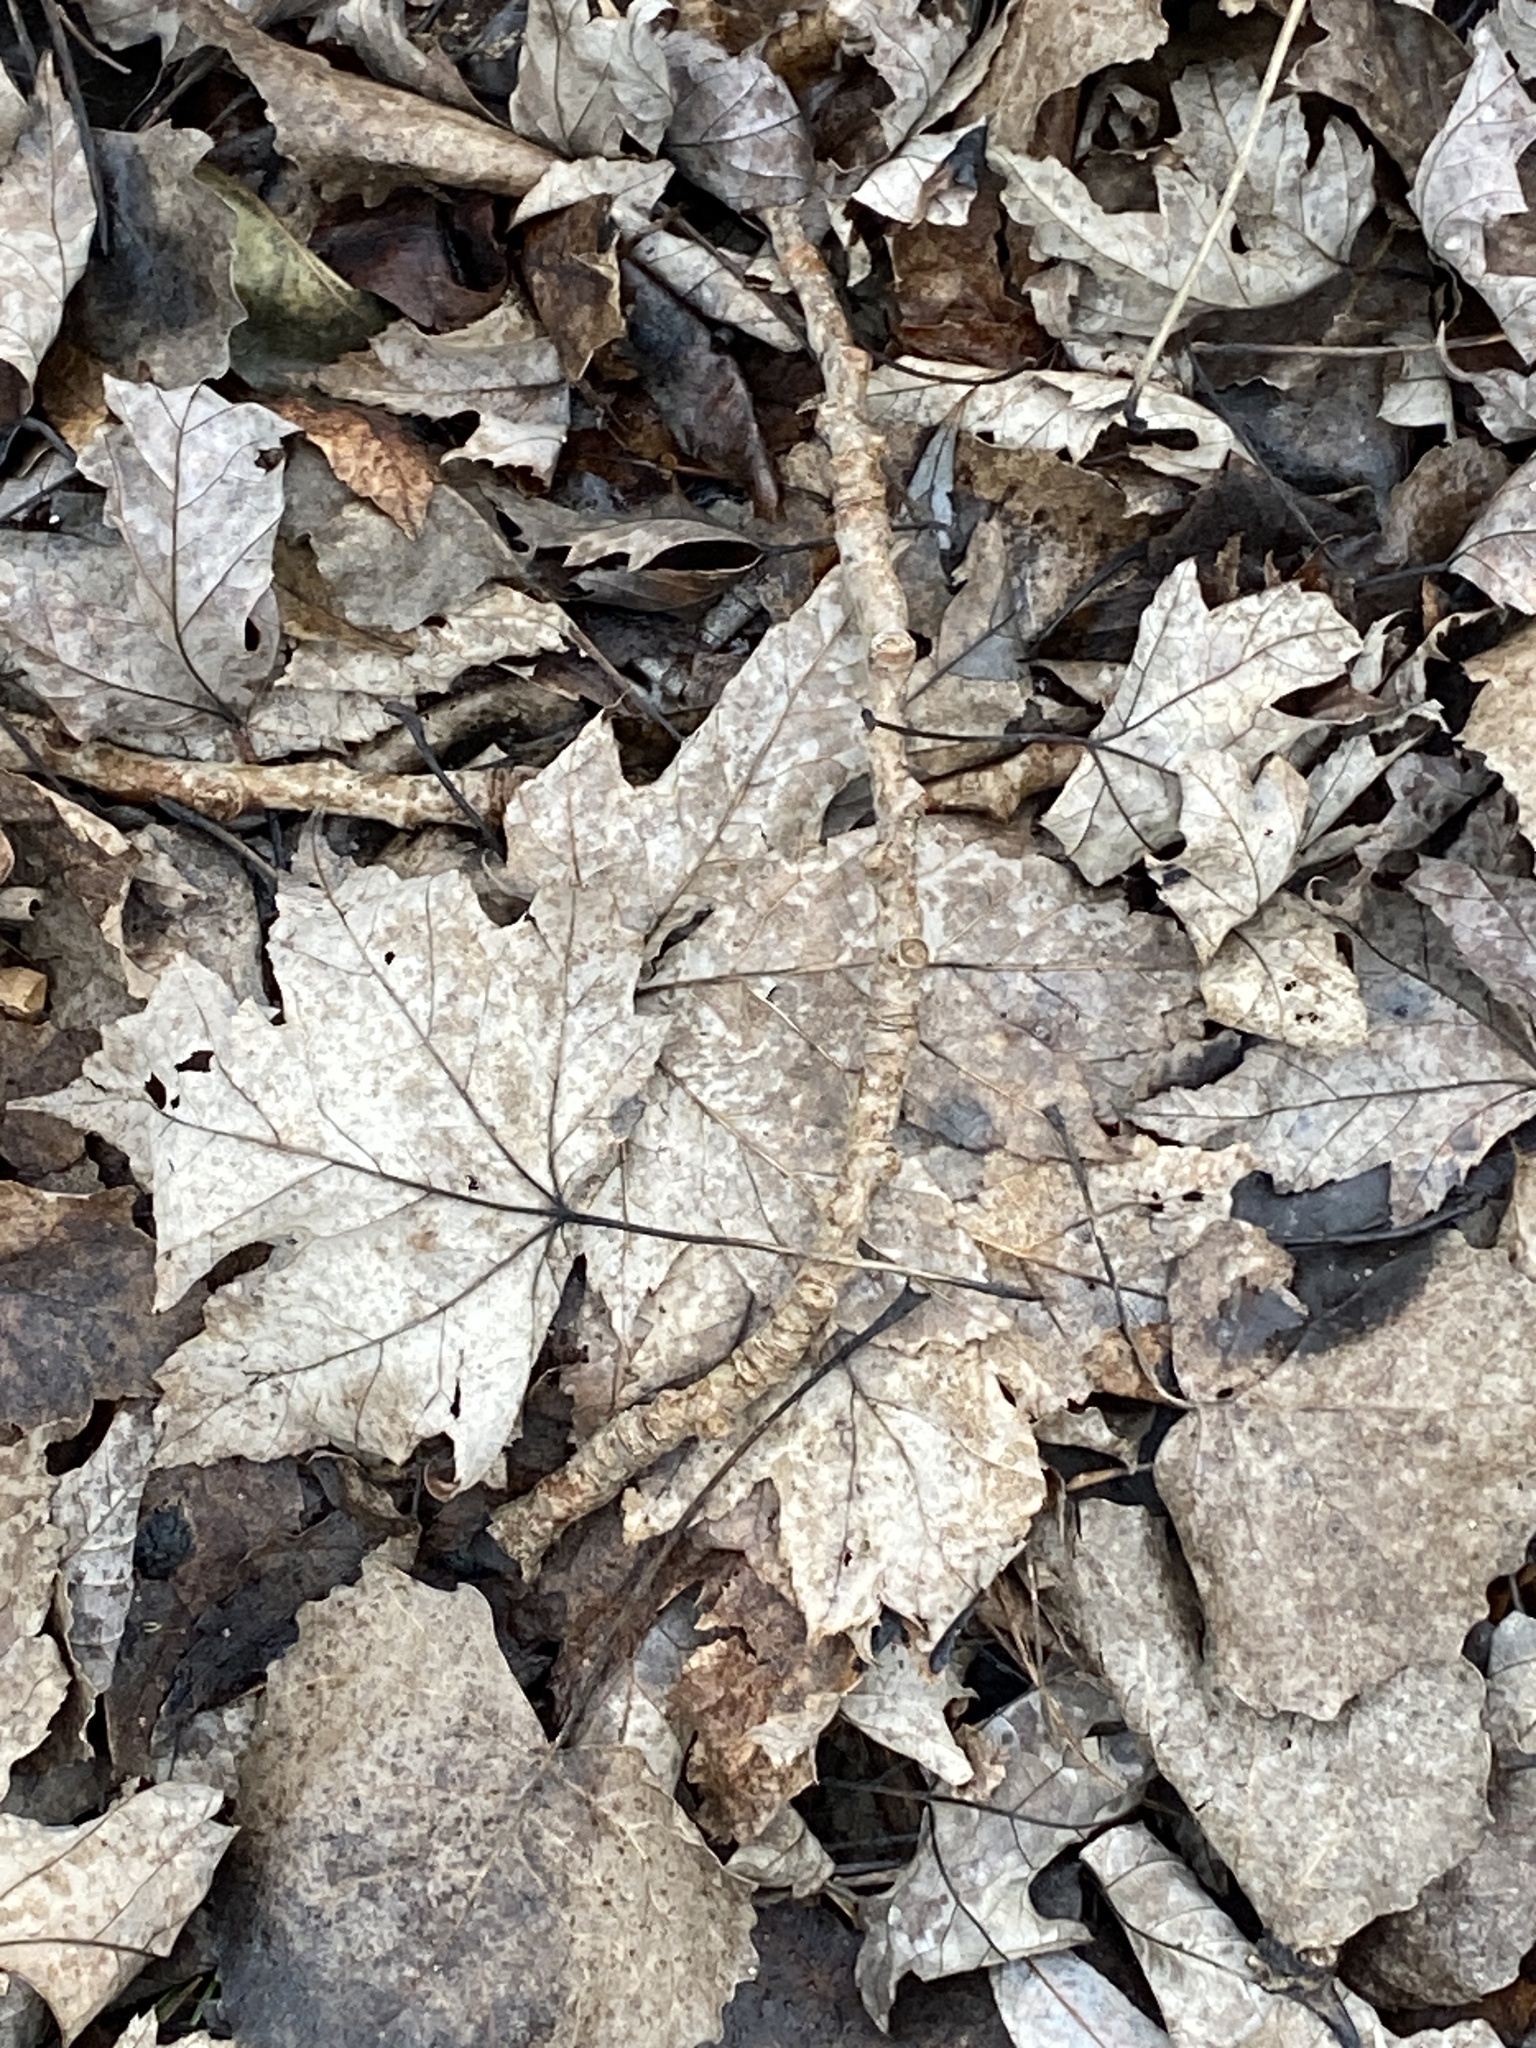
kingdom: Plantae
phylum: Tracheophyta
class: Magnoliopsida
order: Sapindales
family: Sapindaceae
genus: Acer
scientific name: Acer saccharinum
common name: Silver maple
